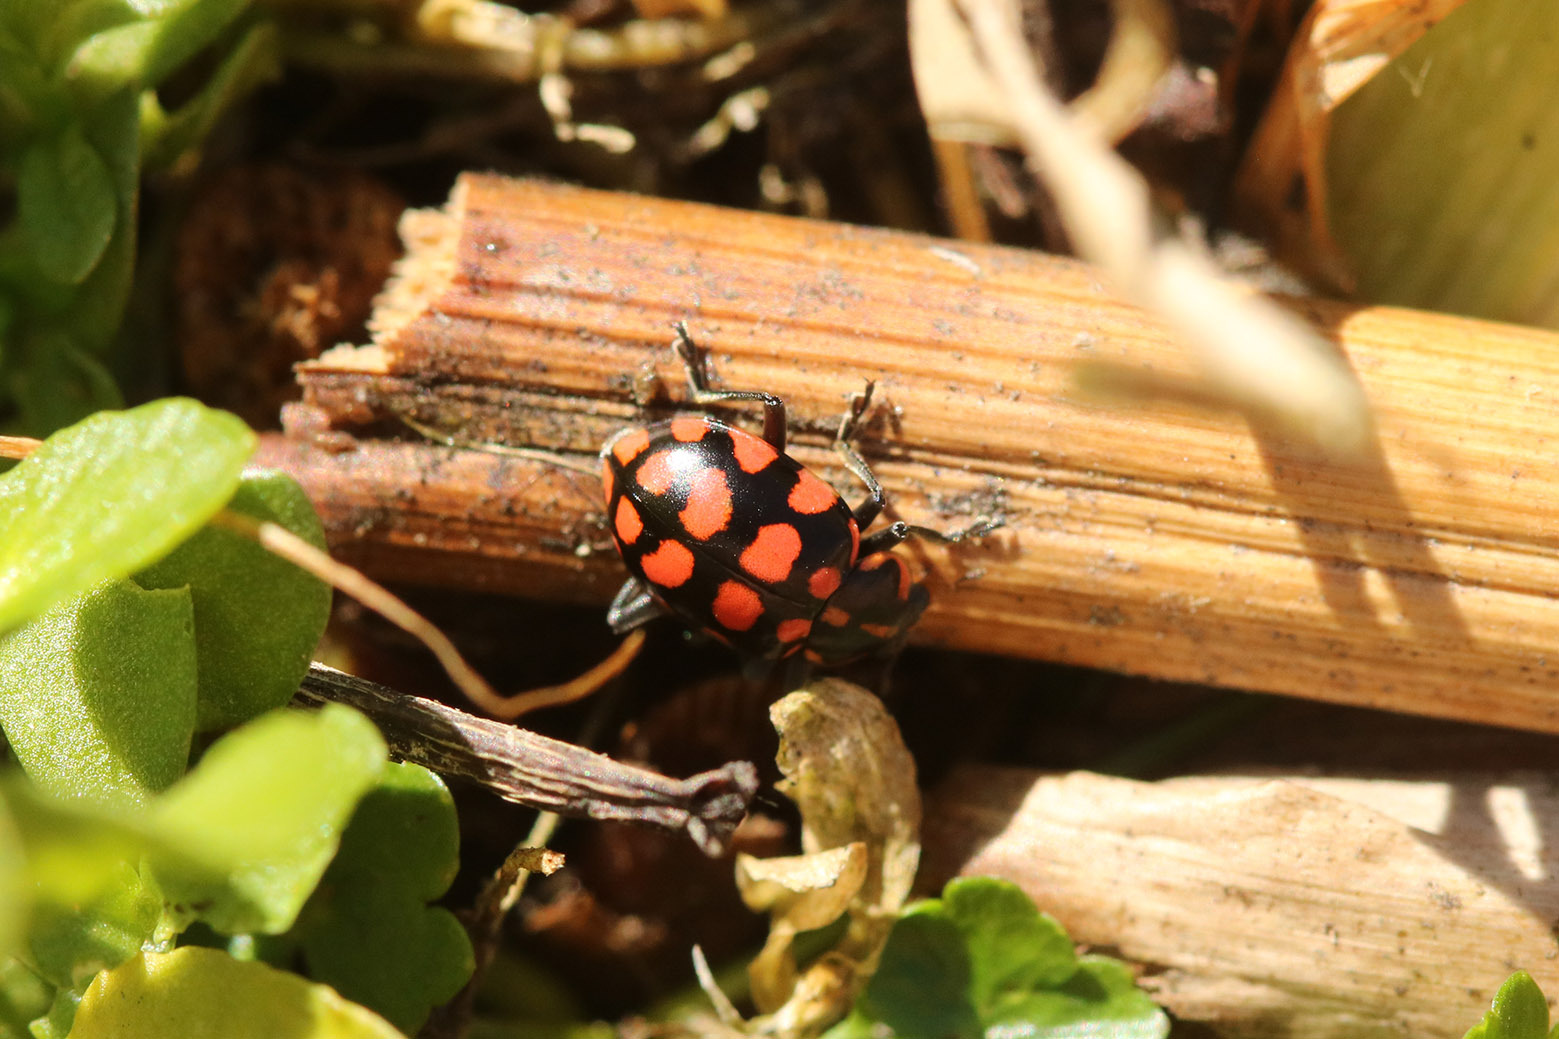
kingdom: Animalia
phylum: Arthropoda
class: Insecta
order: Coleoptera
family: Coccinellidae
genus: Coleomegilla
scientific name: Coleomegilla
